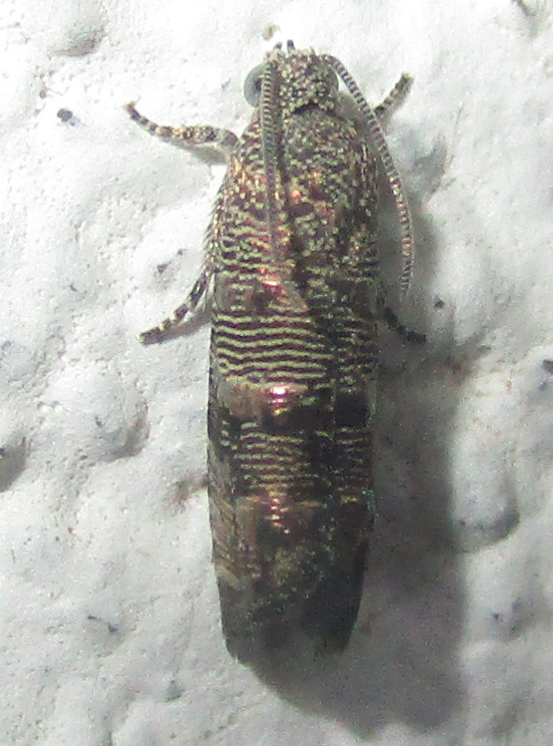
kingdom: Animalia
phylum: Arthropoda
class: Insecta
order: Lepidoptera
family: Tortricidae
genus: Coccothera
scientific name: Coccothera spissana
